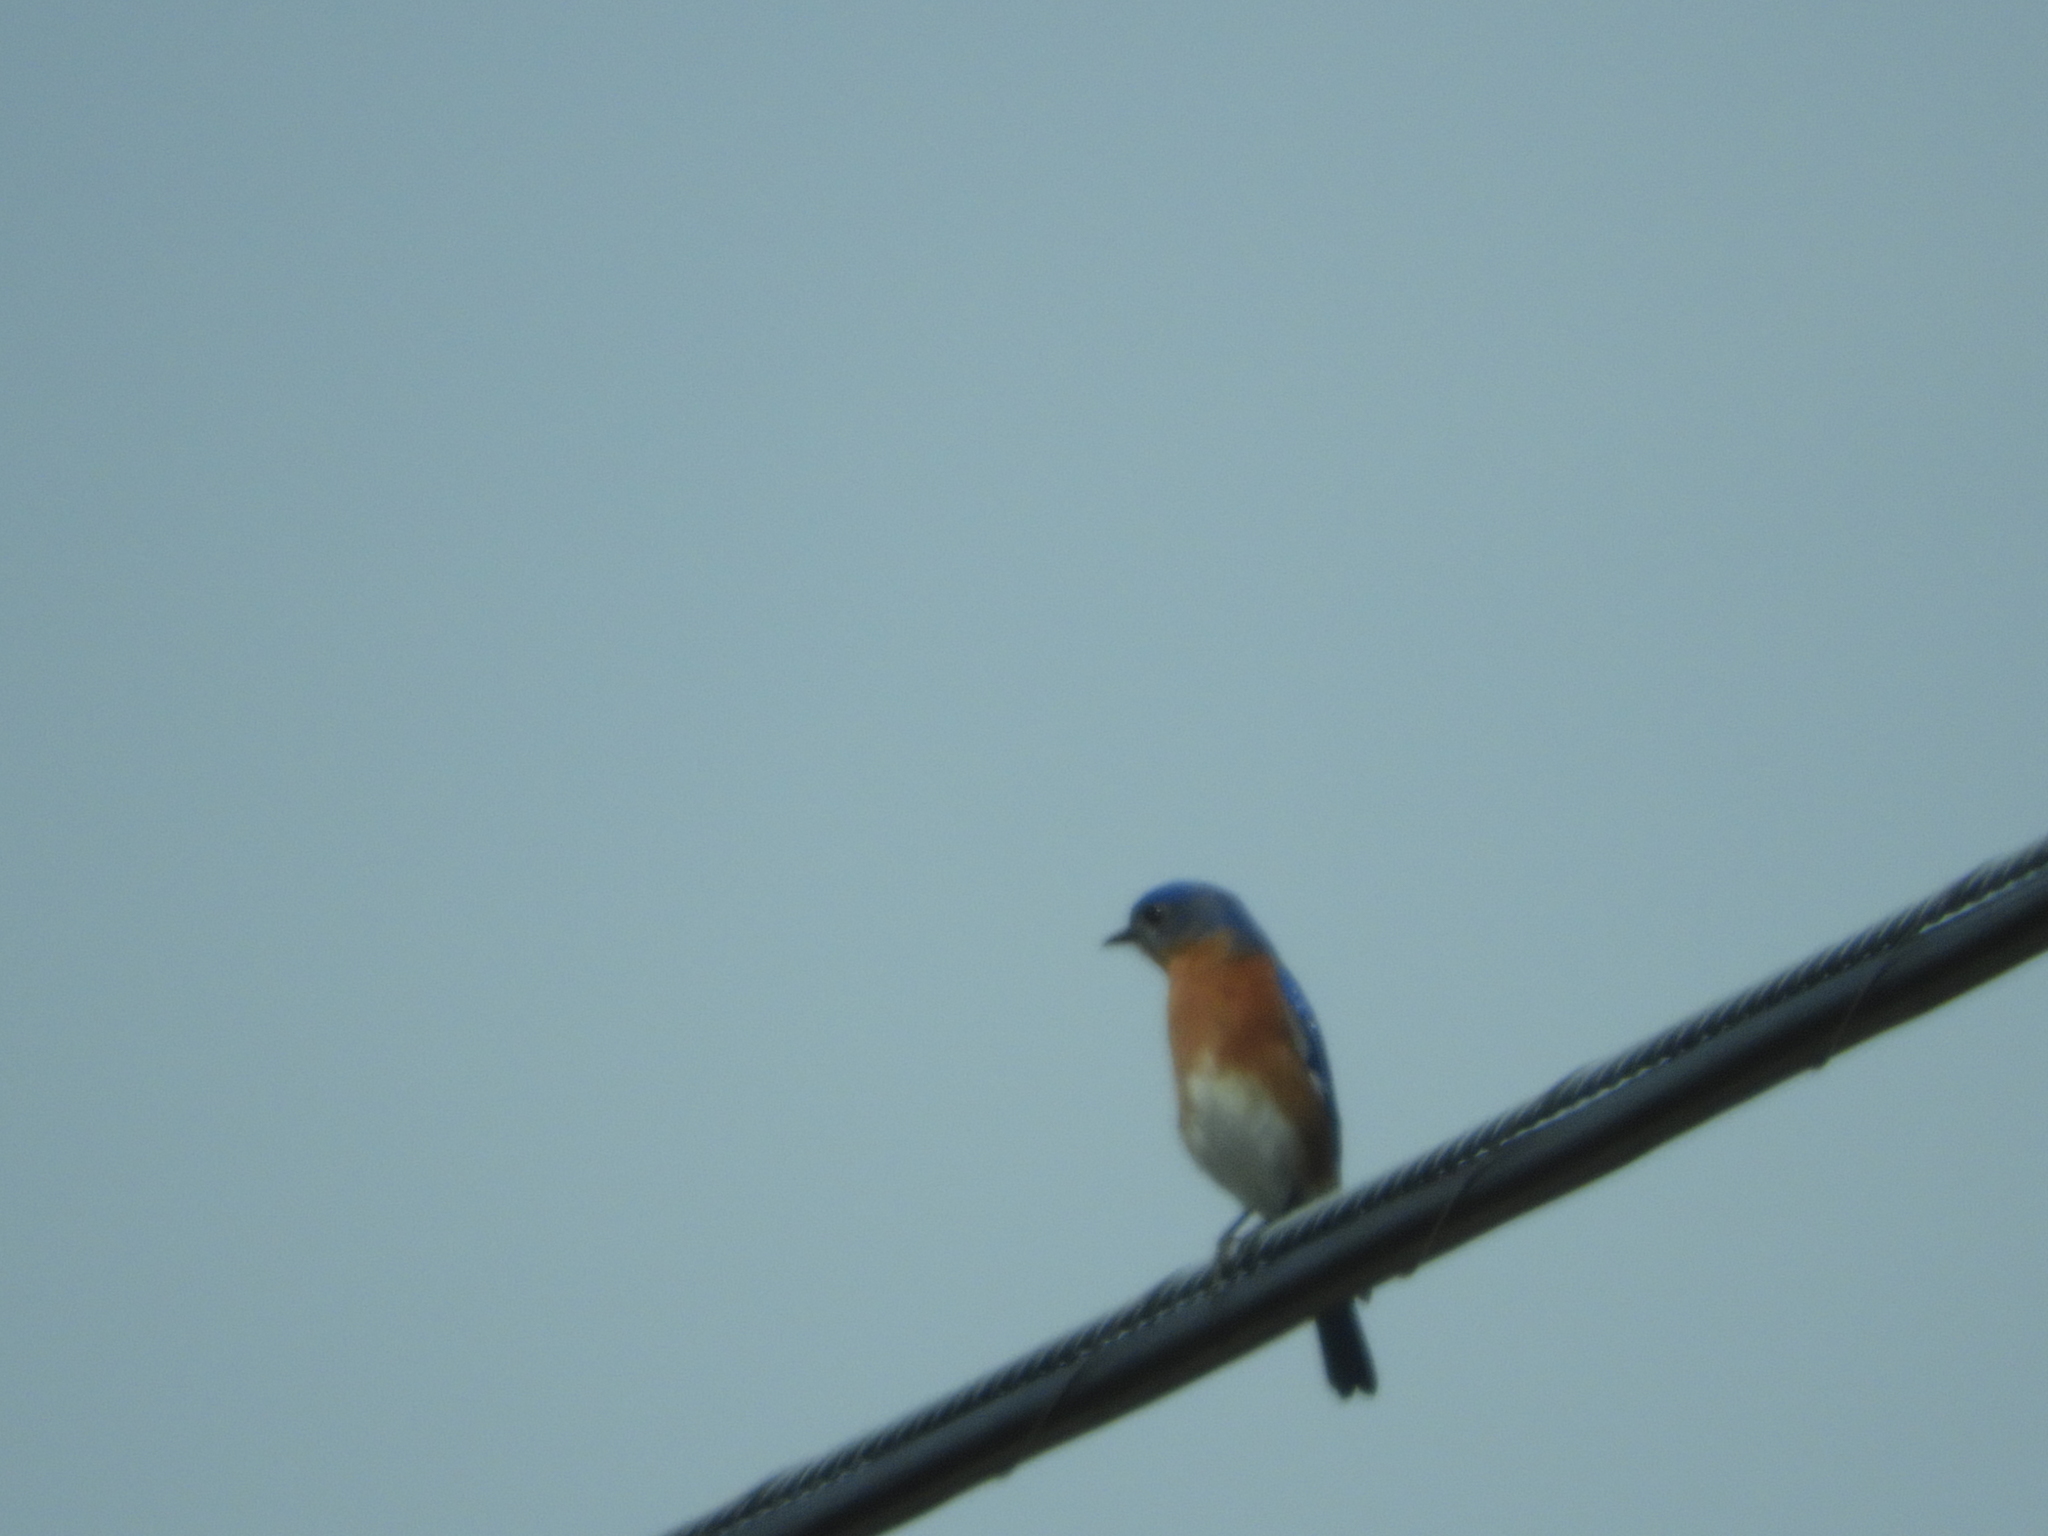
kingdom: Animalia
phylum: Chordata
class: Aves
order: Passeriformes
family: Turdidae
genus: Sialia
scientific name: Sialia sialis
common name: Eastern bluebird
